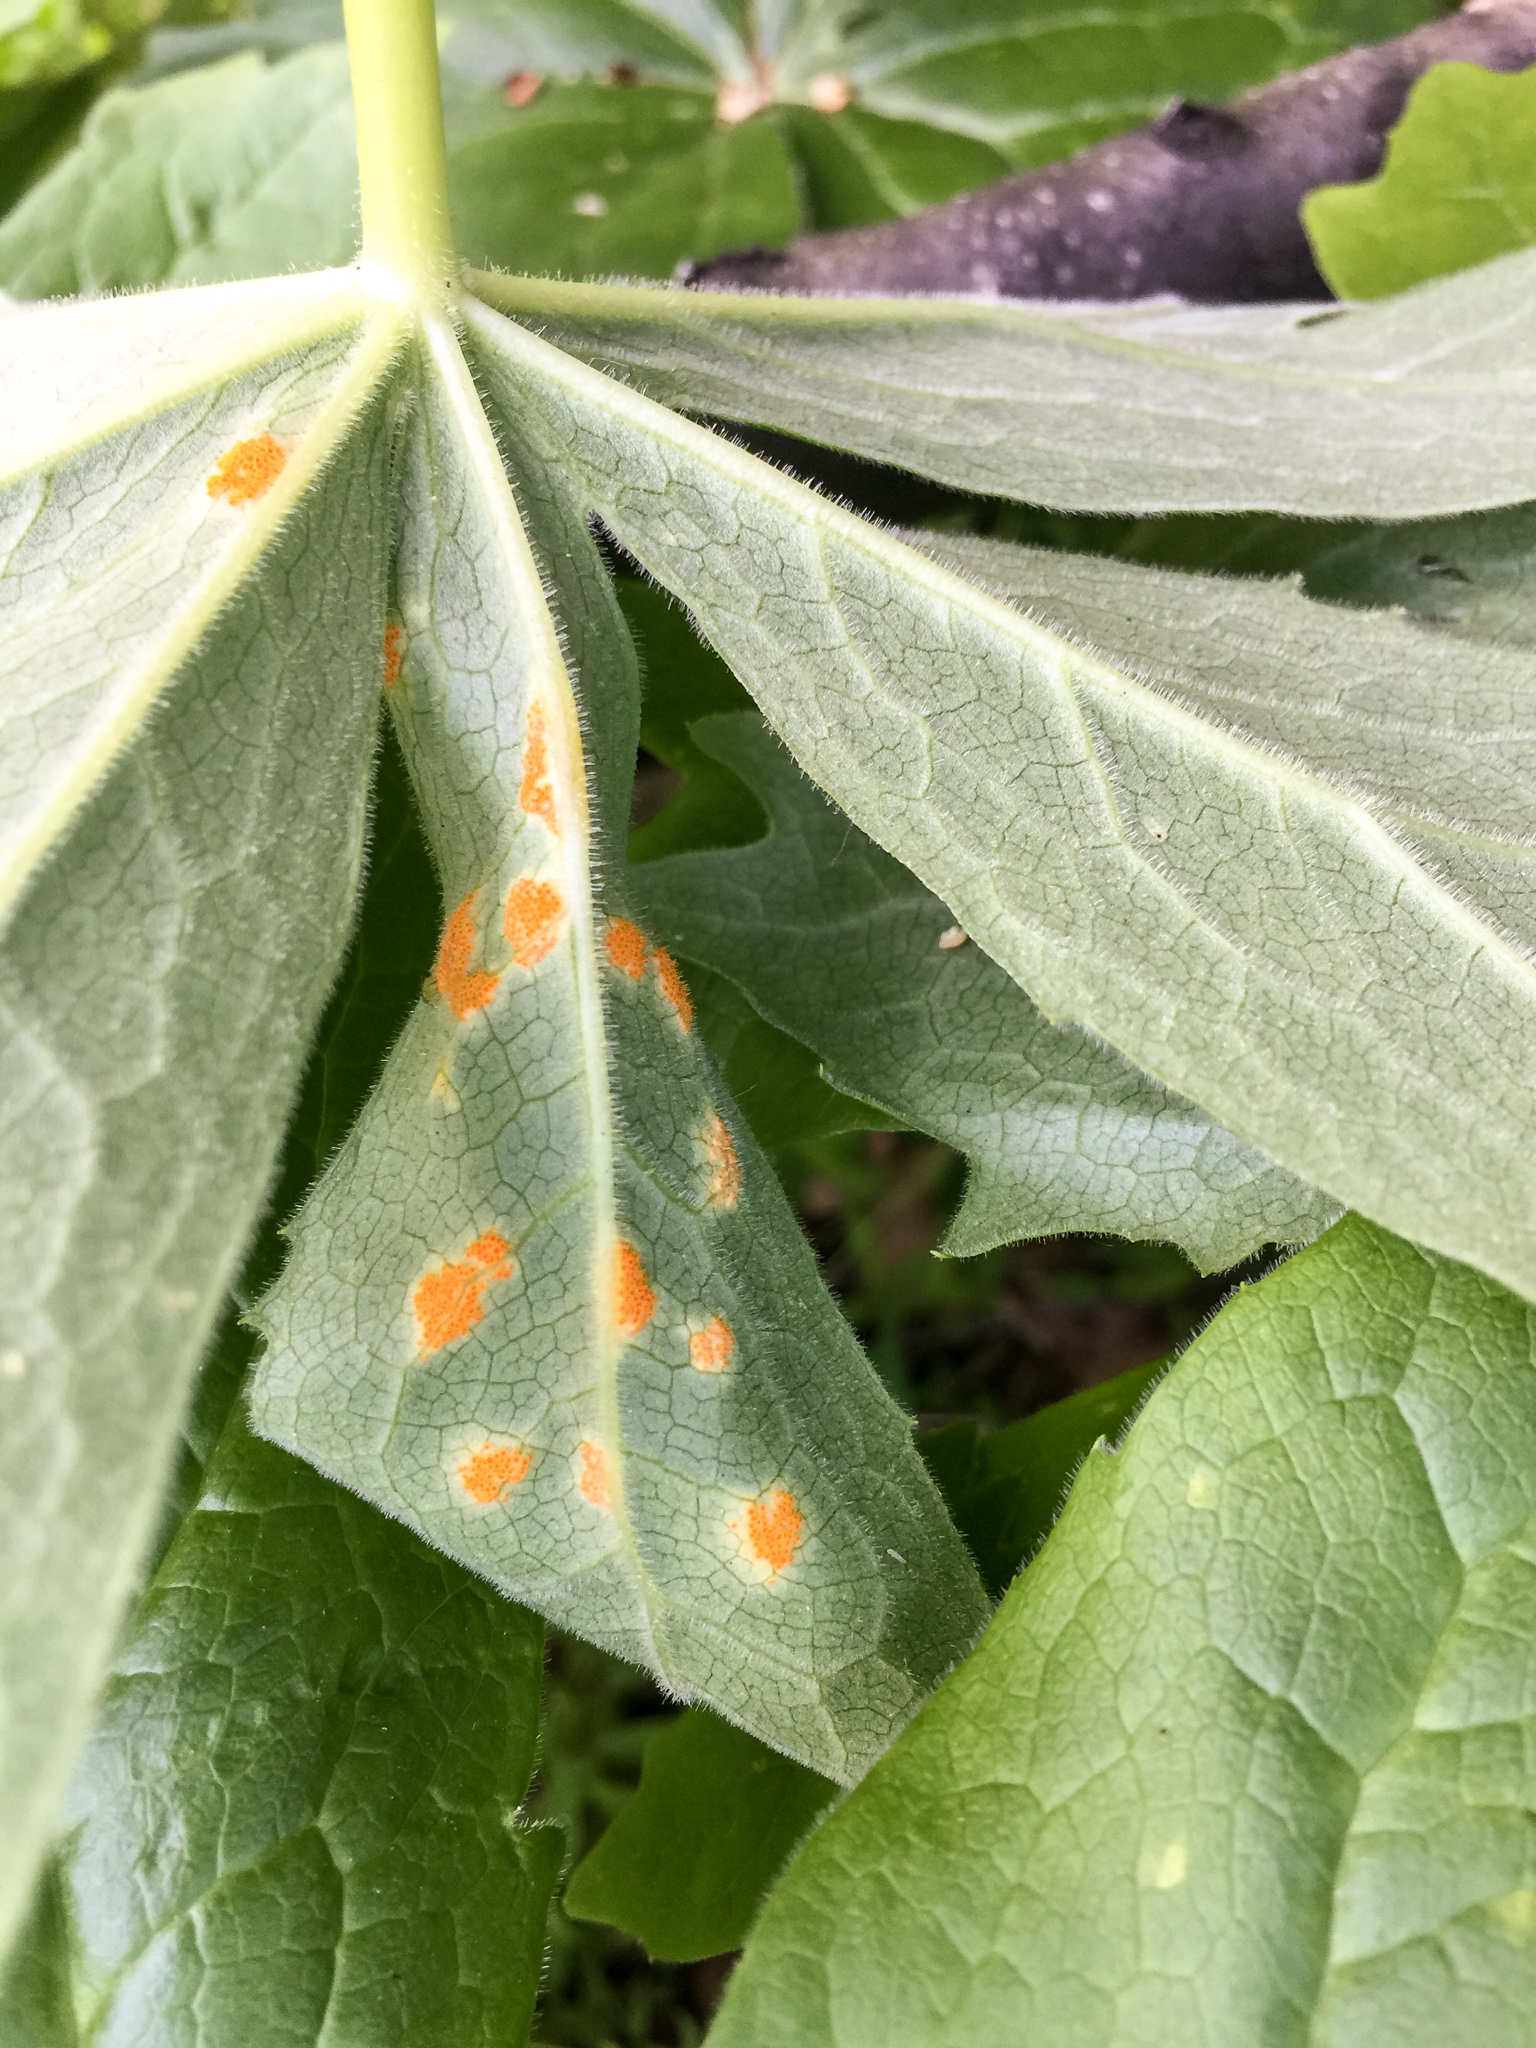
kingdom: Fungi
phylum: Basidiomycota
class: Pucciniomycetes
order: Pucciniales
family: Pucciniaceae
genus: Puccinia
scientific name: Puccinia podophylli
